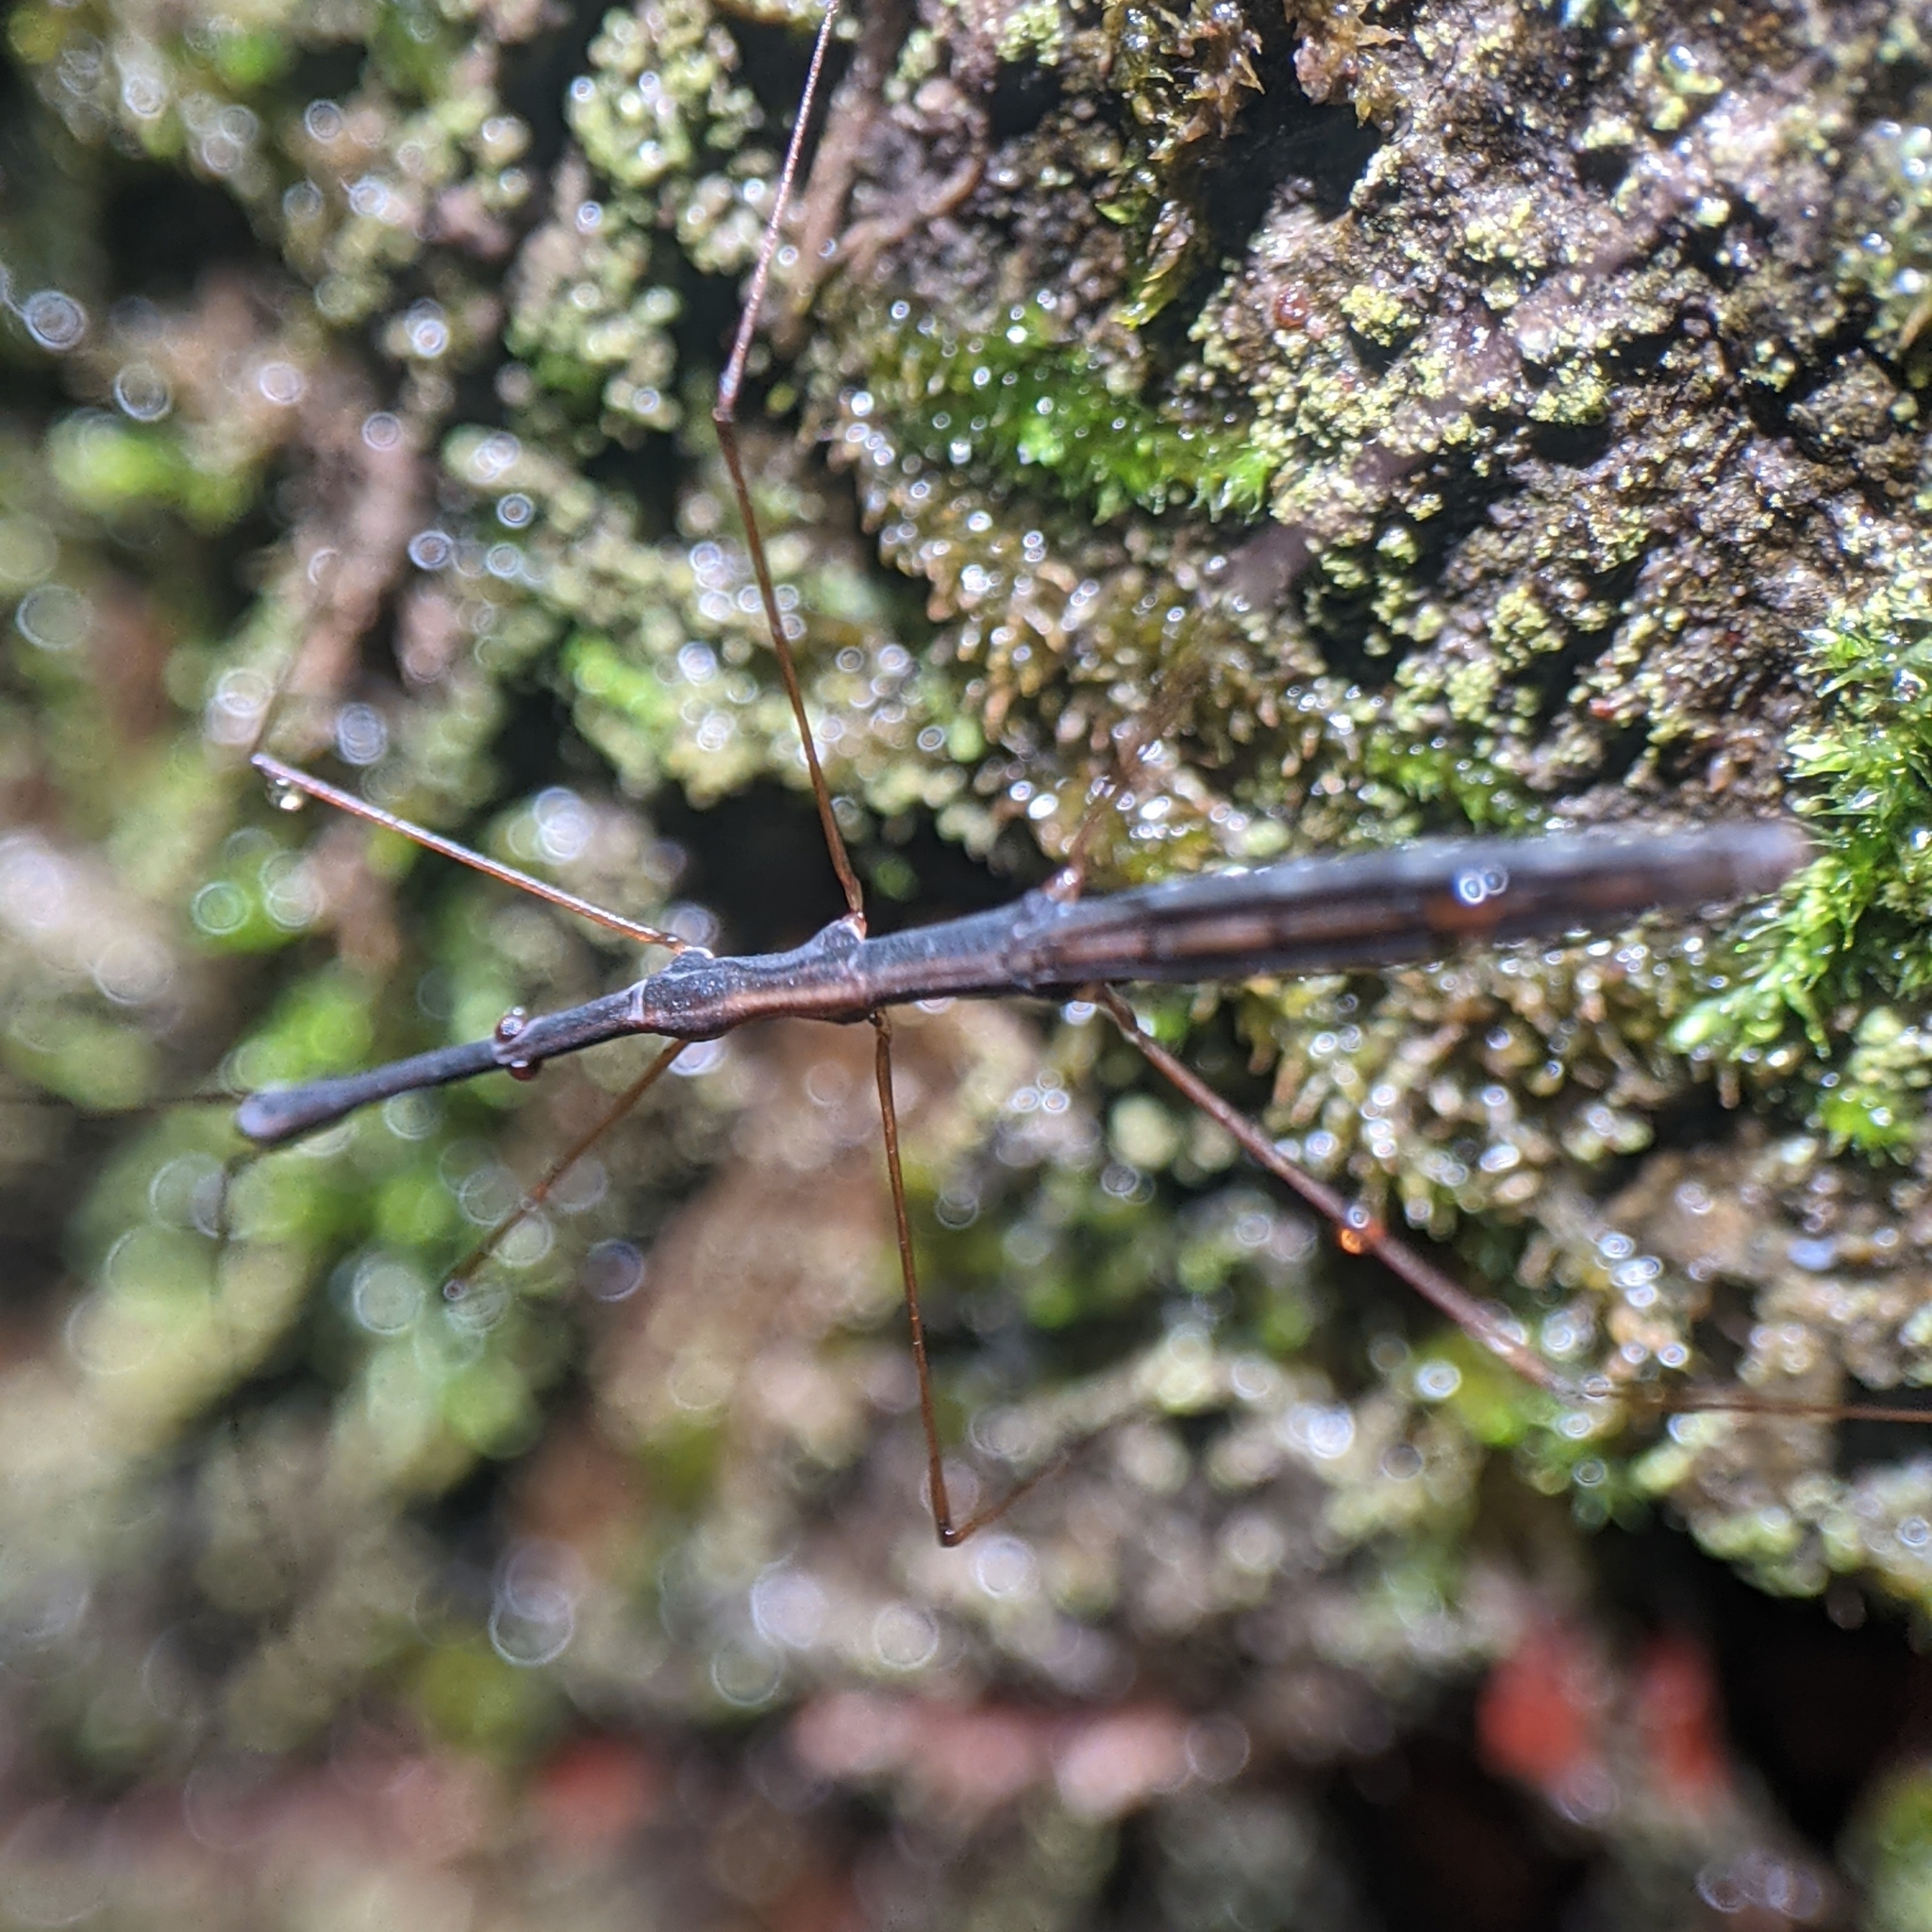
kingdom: Animalia
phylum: Arthropoda
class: Insecta
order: Hemiptera
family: Hydrometridae
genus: Hydrometra
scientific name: Hydrometra
